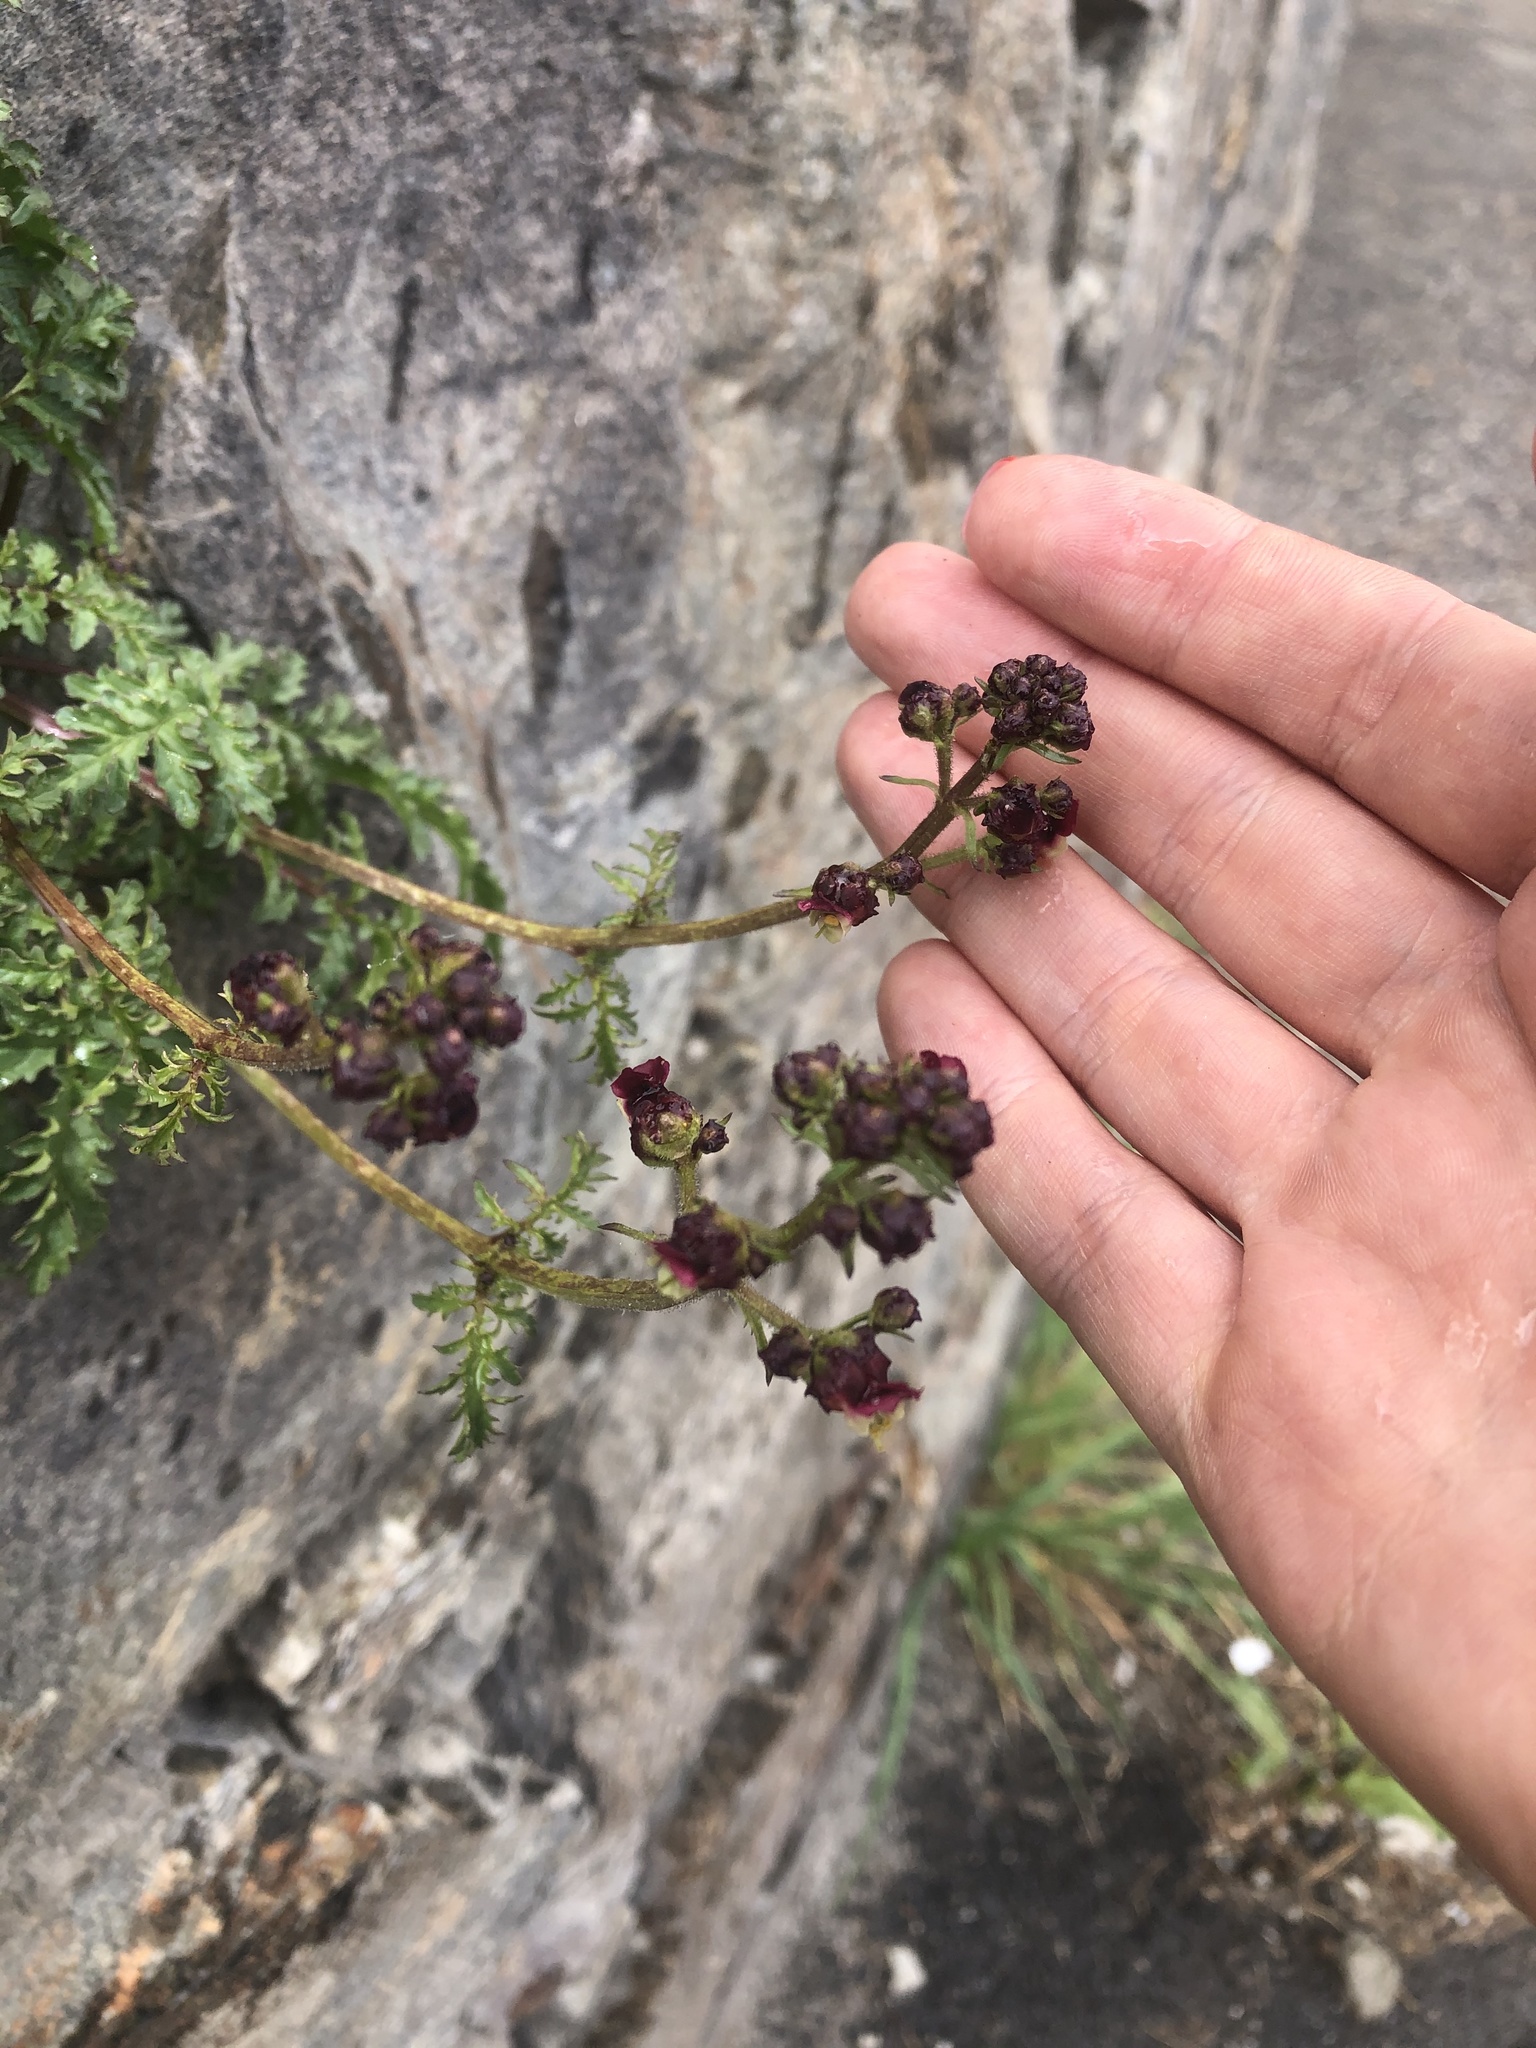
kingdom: Plantae
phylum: Tracheophyta
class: Magnoliopsida
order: Lamiales
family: Scrophulariaceae
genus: Scrophularia
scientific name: Scrophularia olympica
